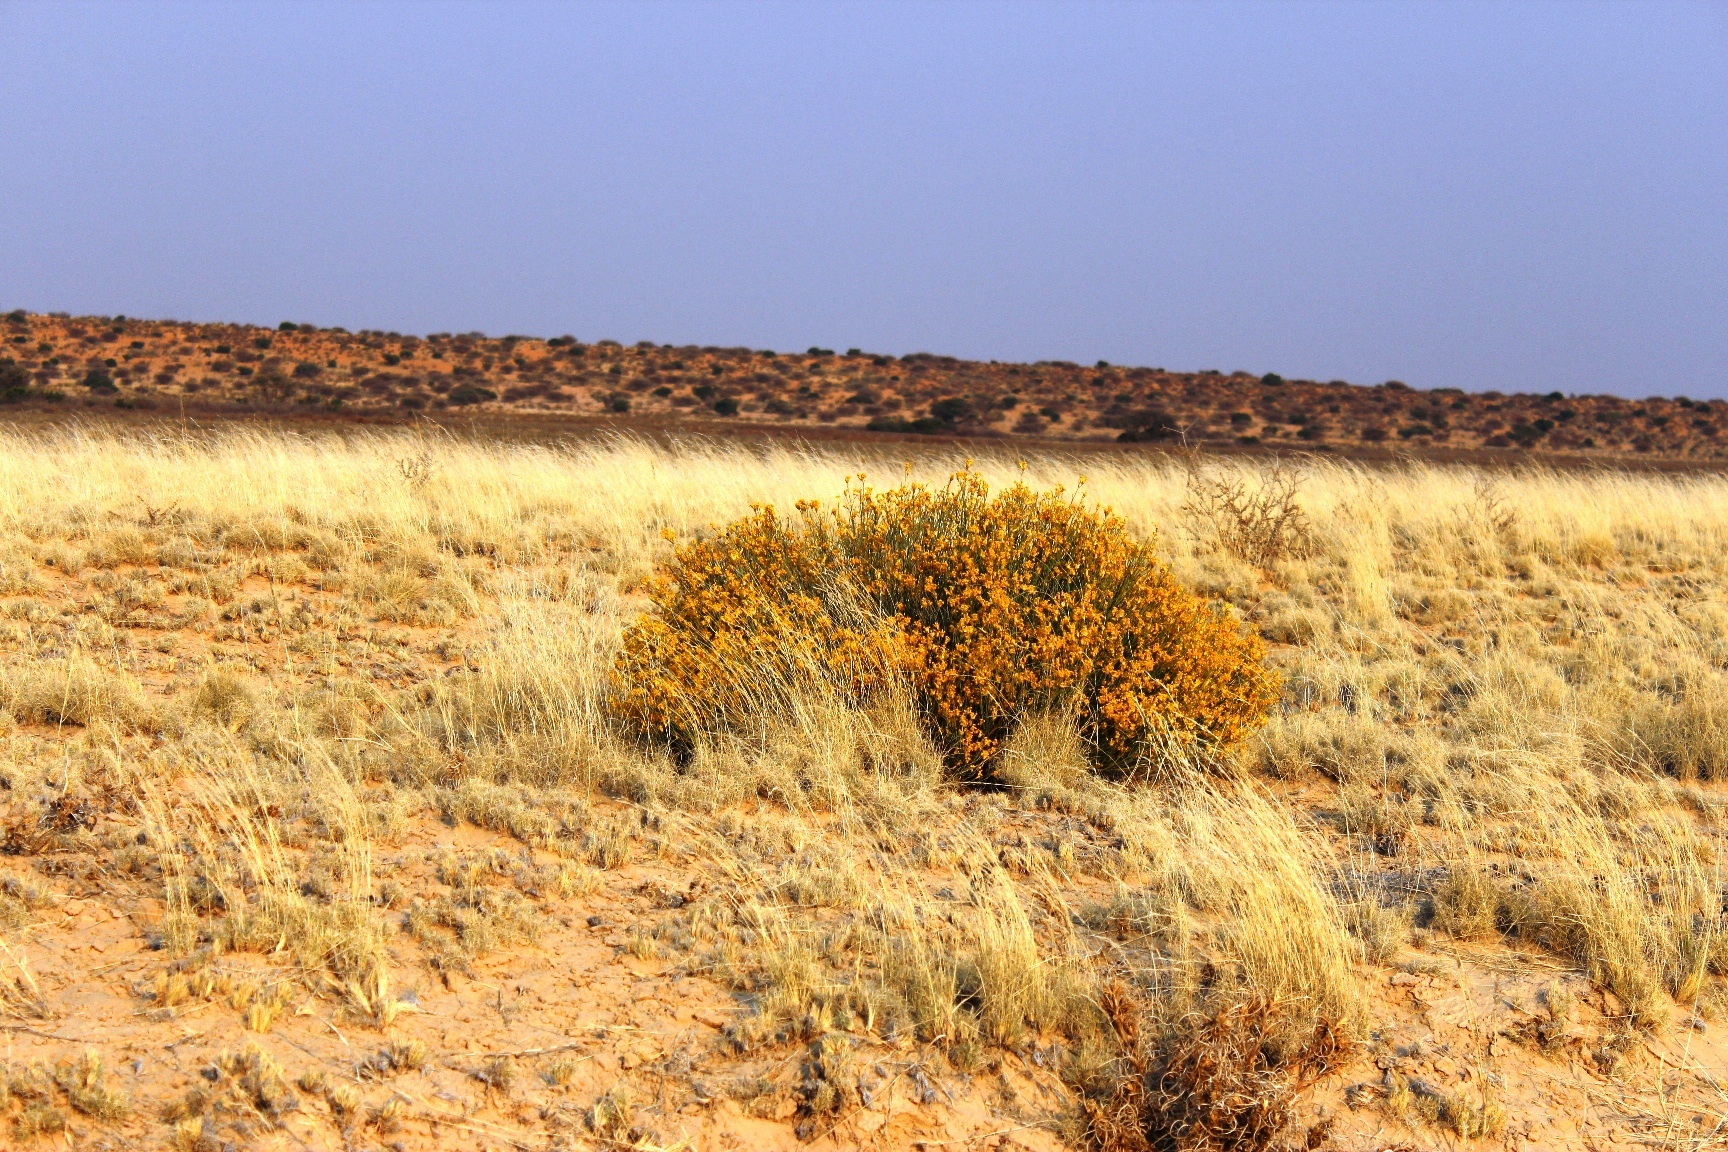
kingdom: Plantae
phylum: Tracheophyta
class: Magnoliopsida
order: Malvales
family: Thymelaeaceae
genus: Gnidia
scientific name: Gnidia polycephala
